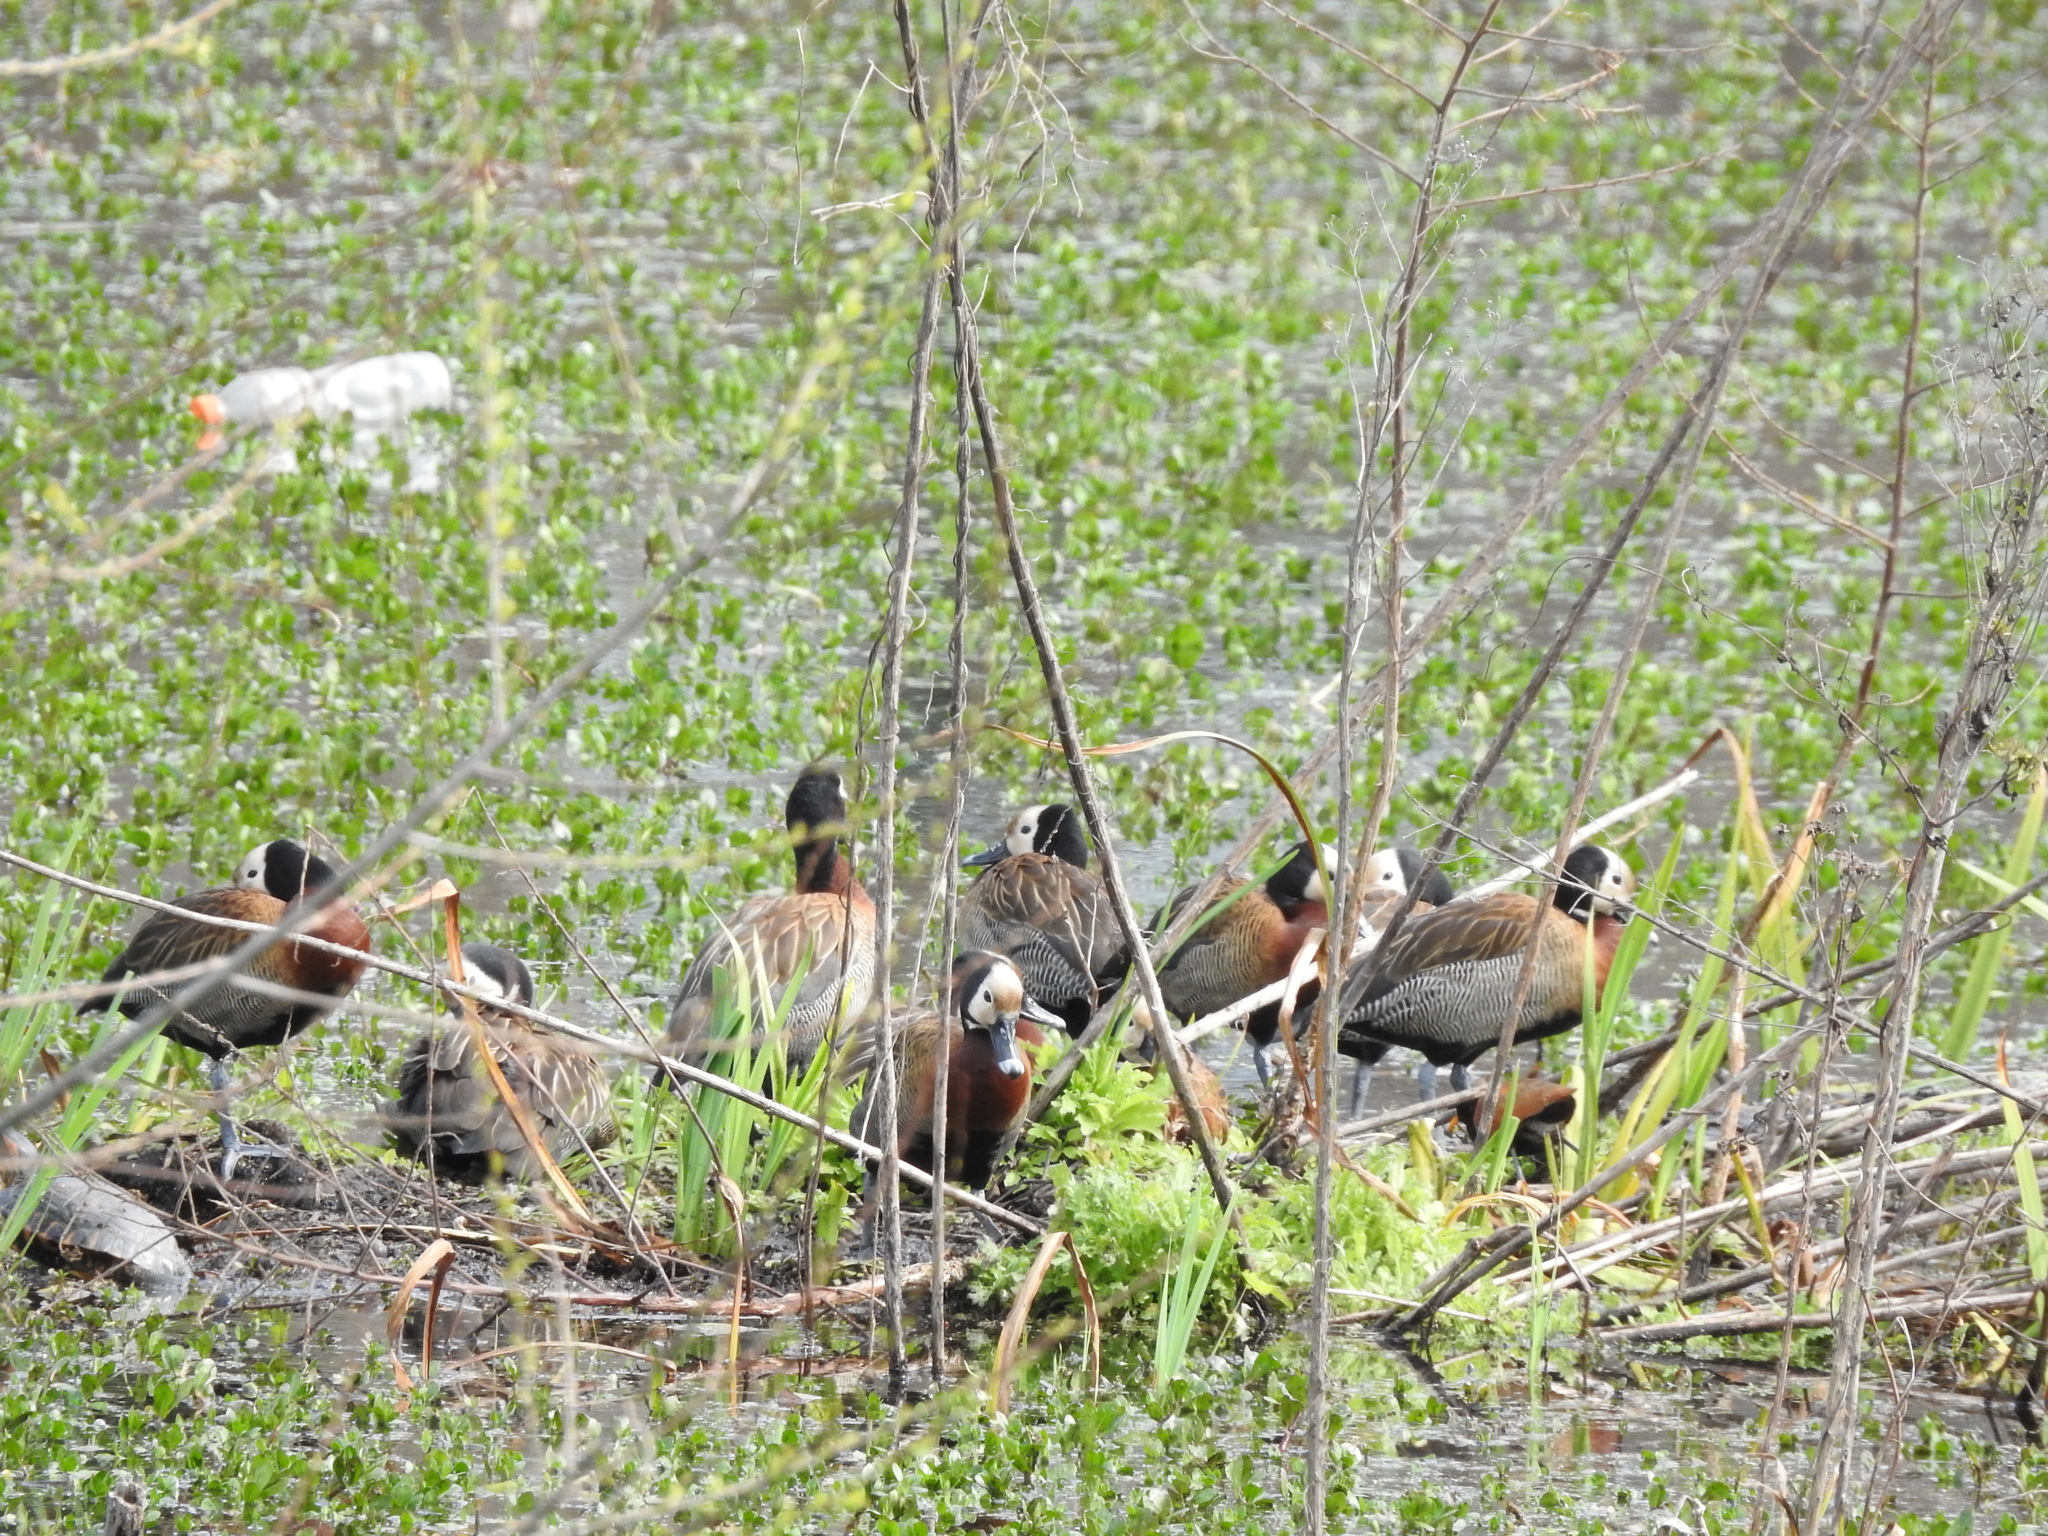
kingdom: Animalia
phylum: Chordata
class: Aves
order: Anseriformes
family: Anatidae
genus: Dendrocygna
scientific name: Dendrocygna viduata
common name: White-faced whistling duck
